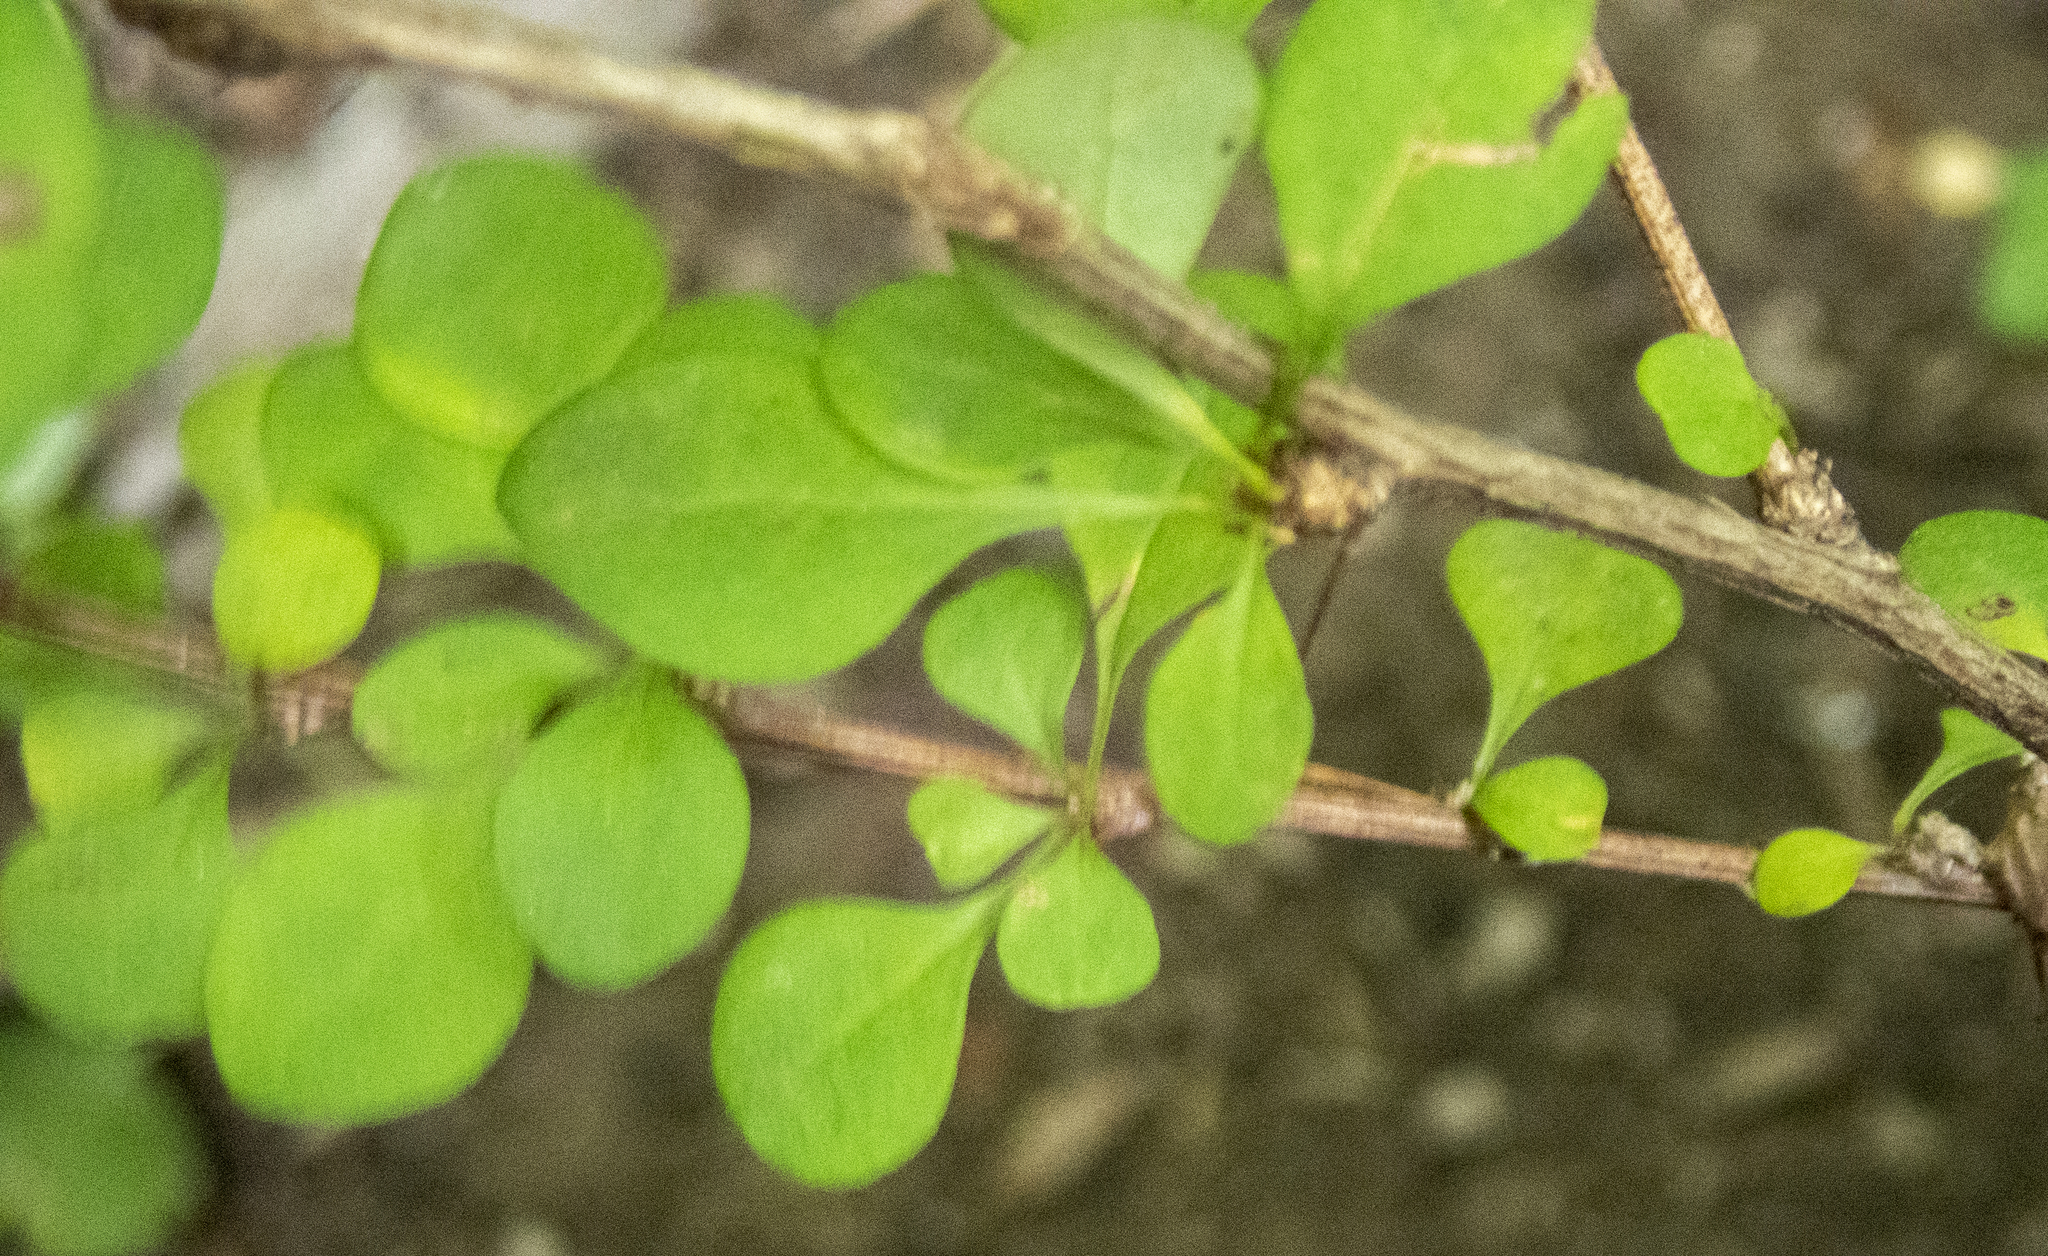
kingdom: Plantae
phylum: Tracheophyta
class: Magnoliopsida
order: Ranunculales
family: Berberidaceae
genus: Berberis
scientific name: Berberis thunbergii
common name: Japanese barberry
